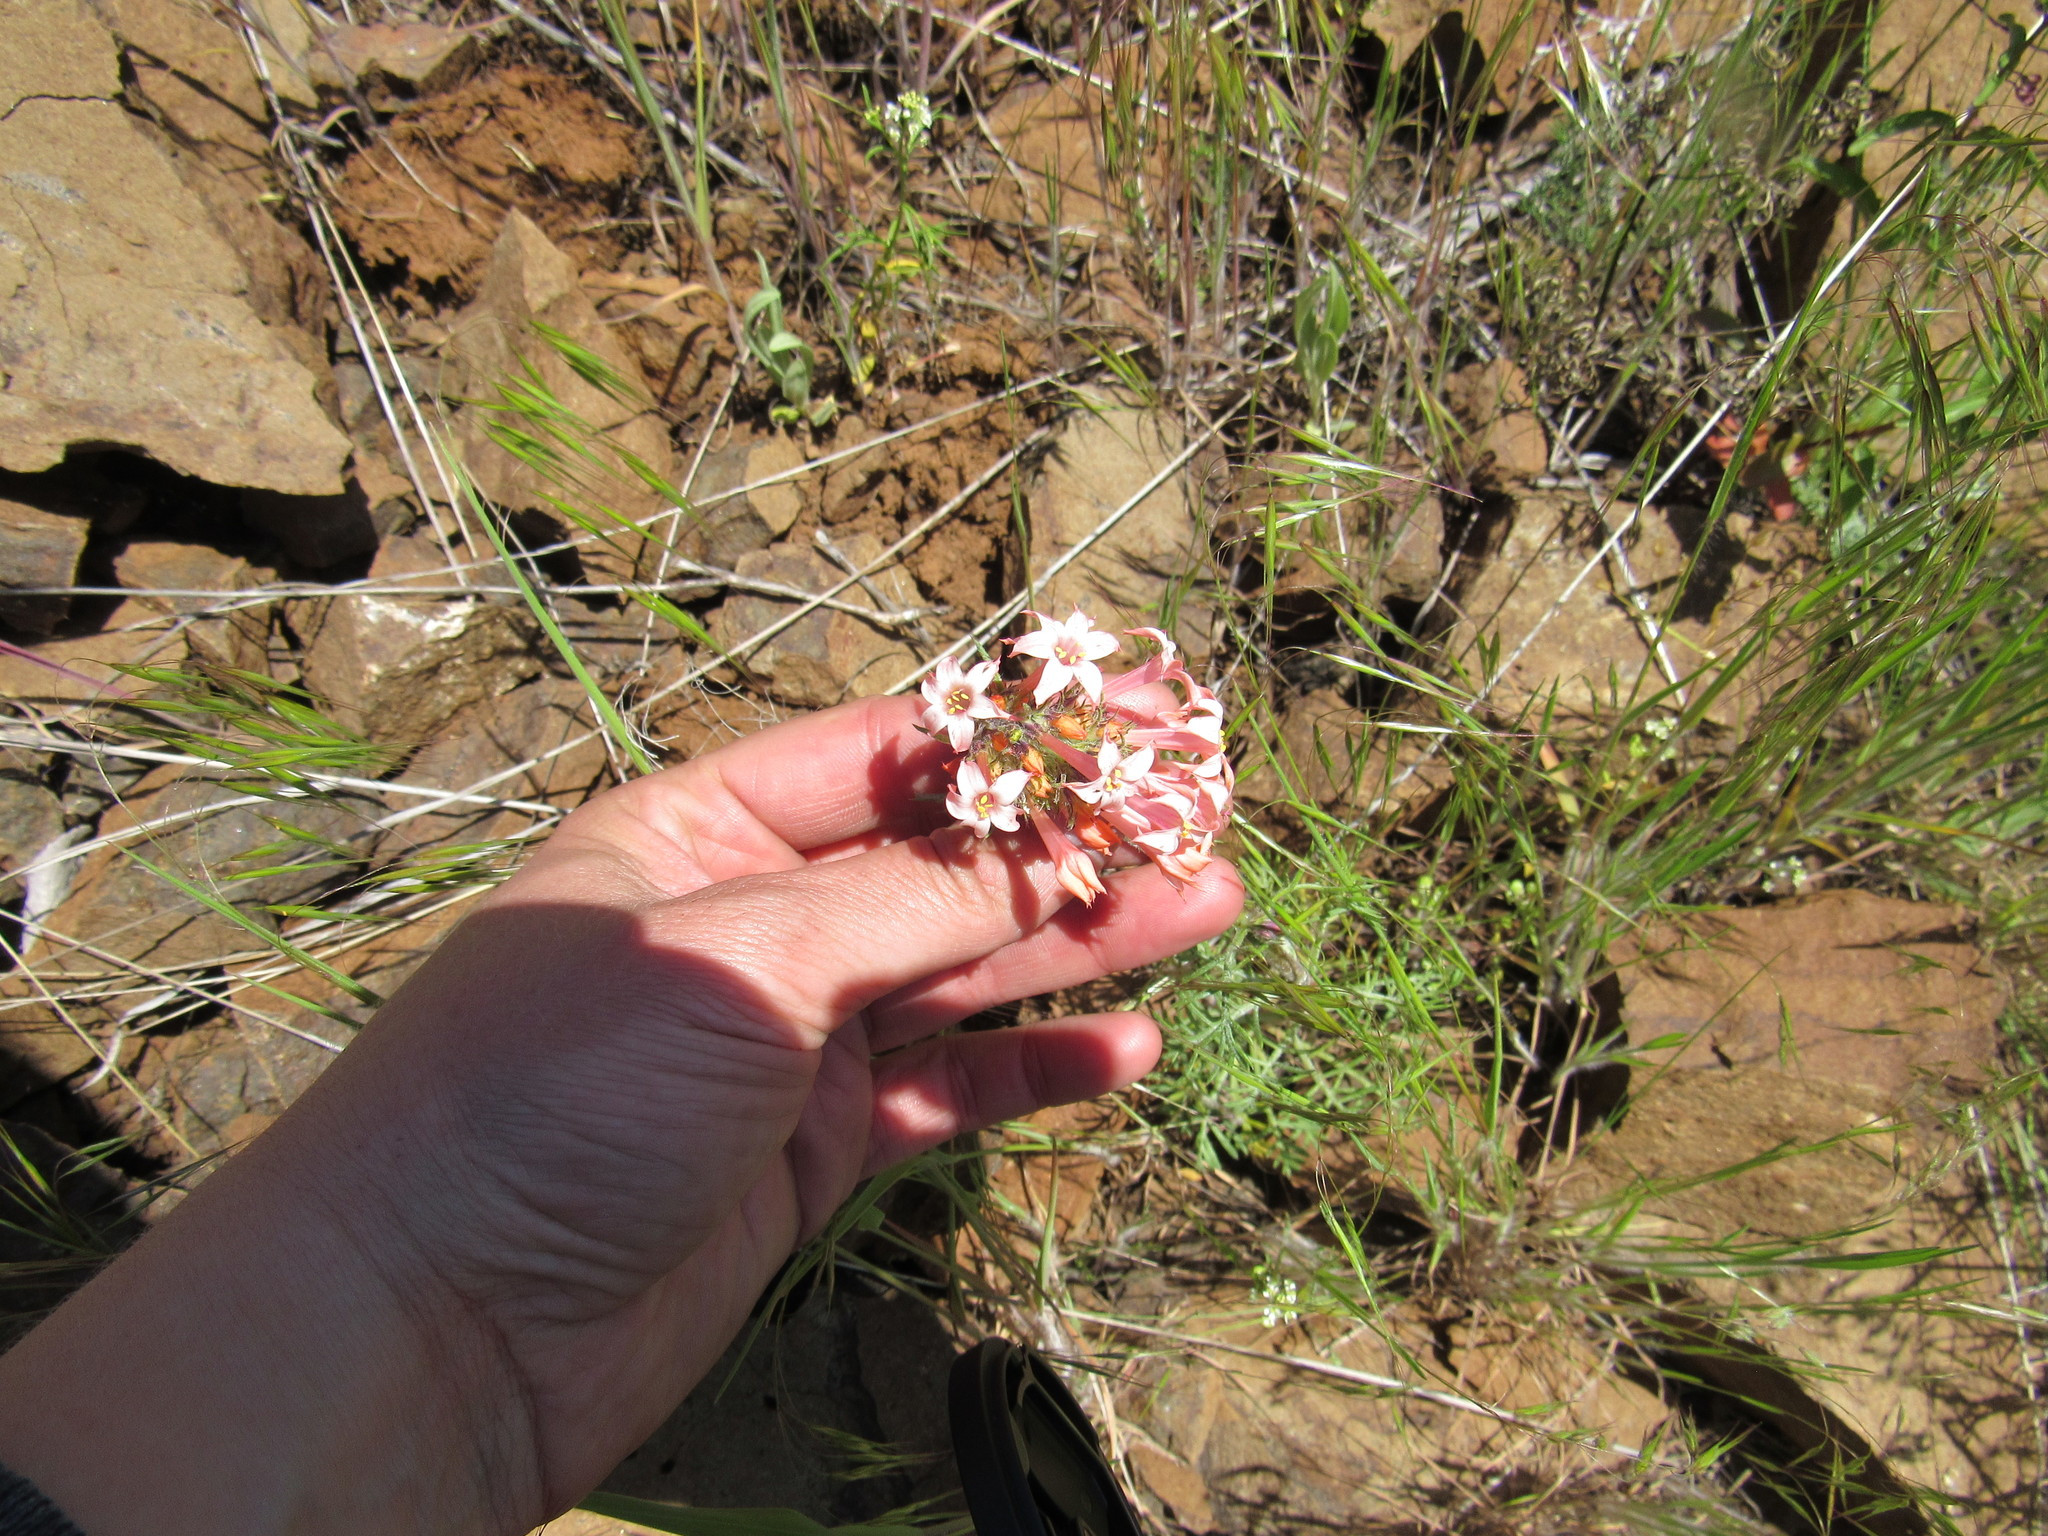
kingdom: Plantae
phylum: Tracheophyta
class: Magnoliopsida
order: Ericales
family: Polemoniaceae
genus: Ipomopsis
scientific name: Ipomopsis aggregata
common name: Scarlet gilia
